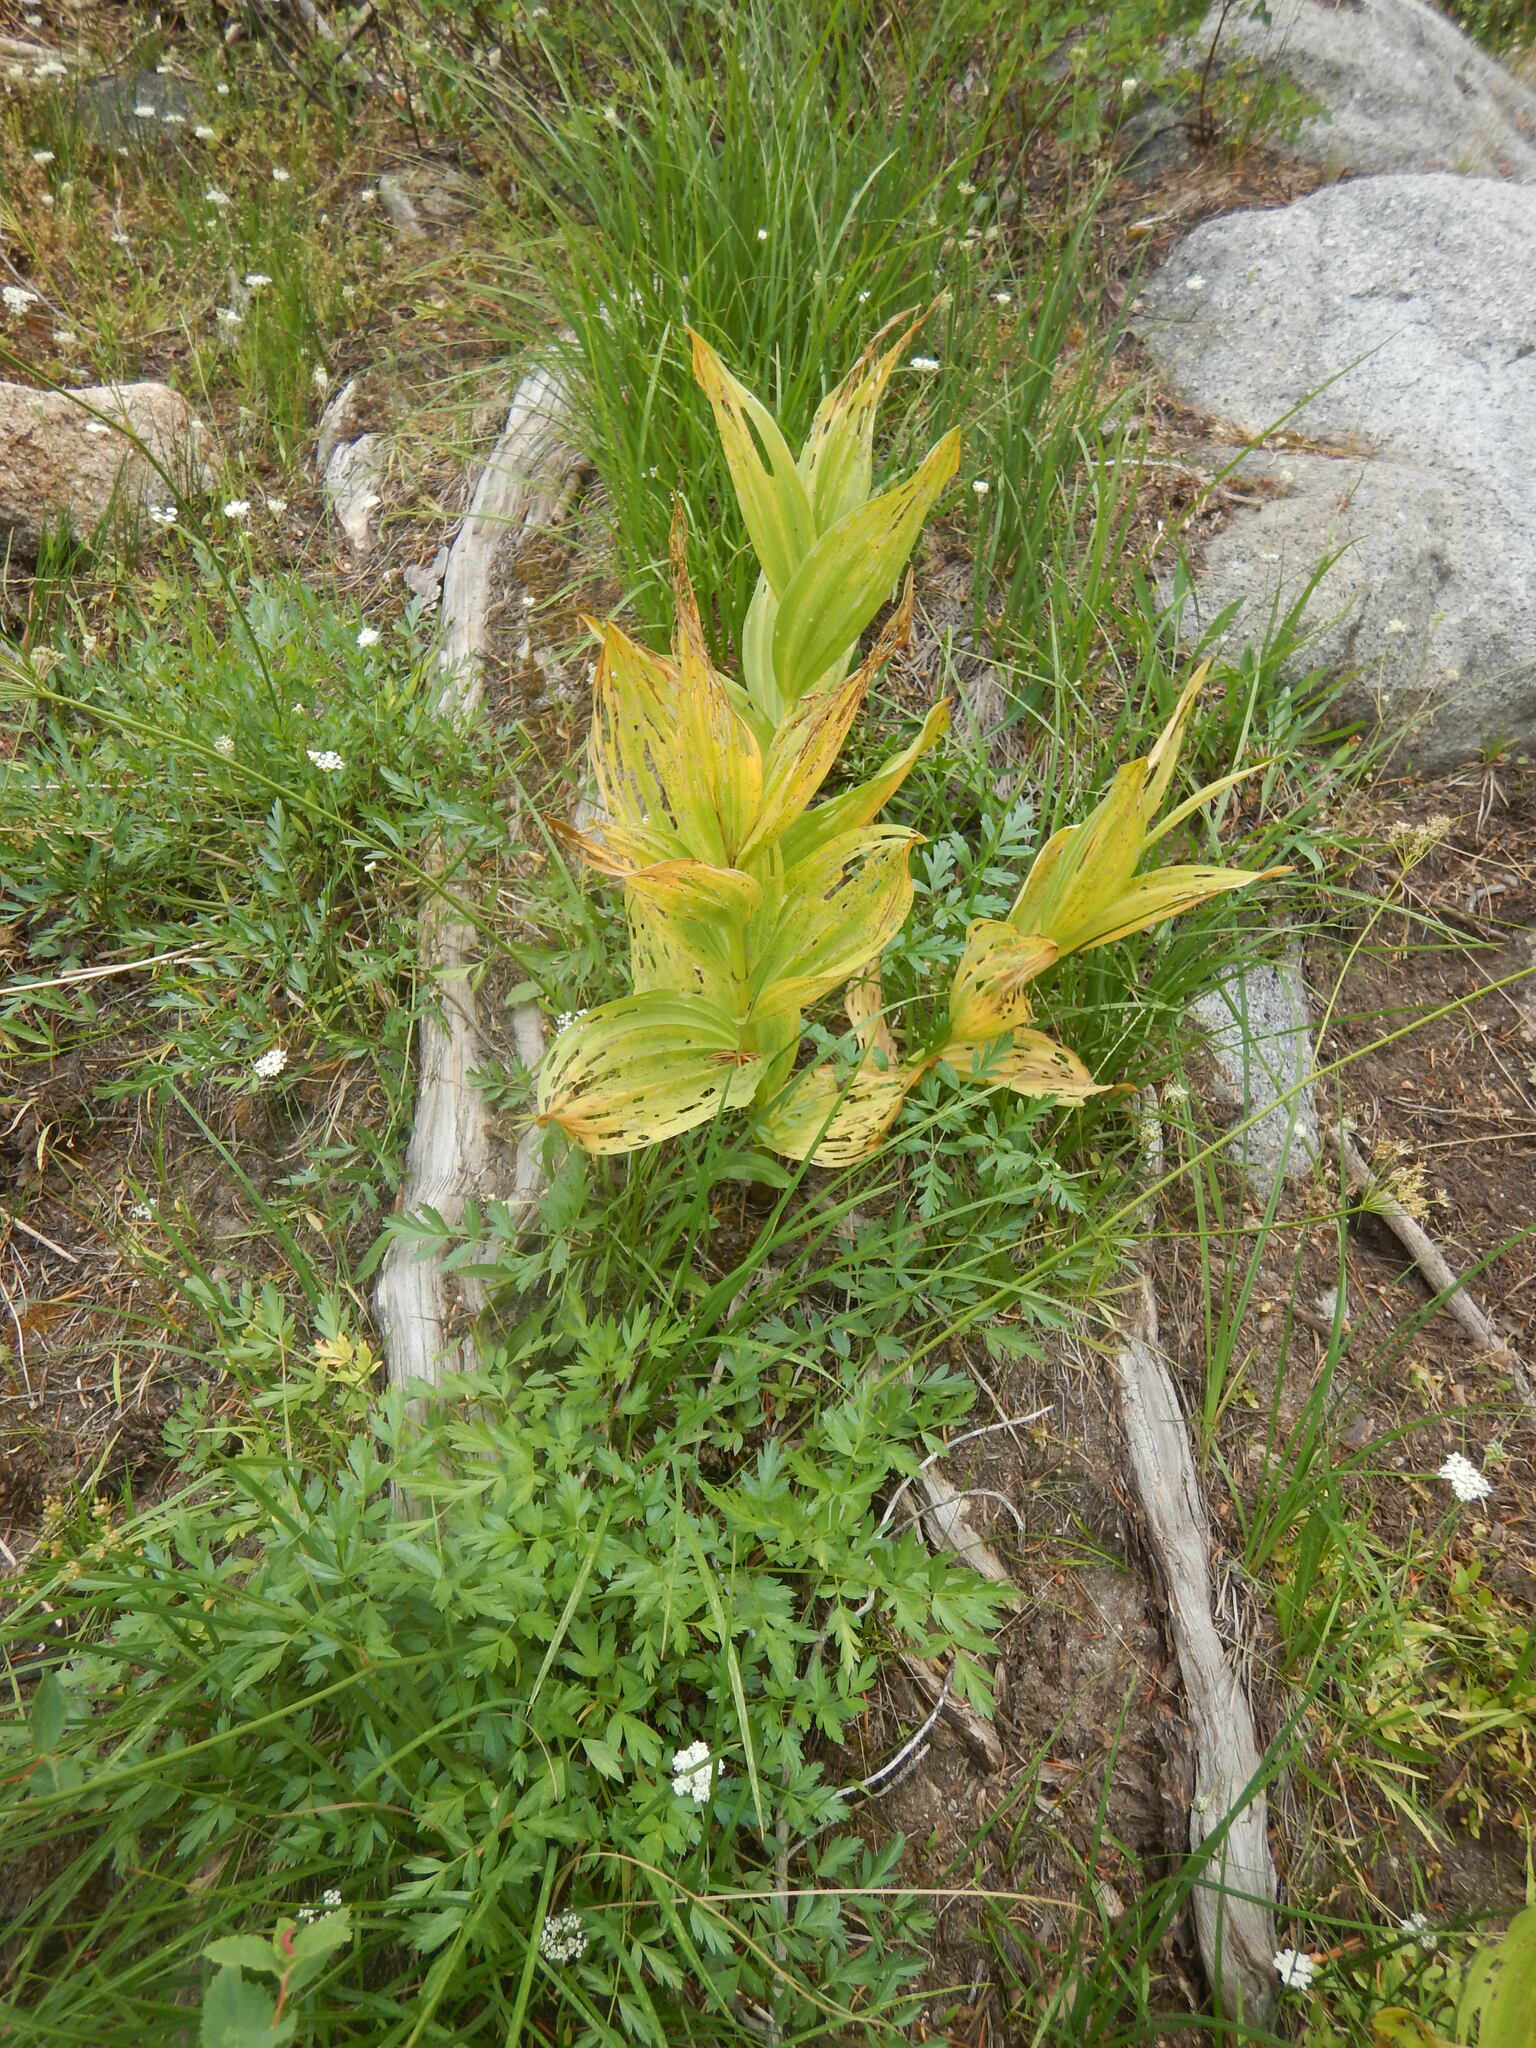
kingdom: Plantae
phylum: Tracheophyta
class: Liliopsida
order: Liliales
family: Melanthiaceae
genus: Veratrum
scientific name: Veratrum californicum
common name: California veratrum
